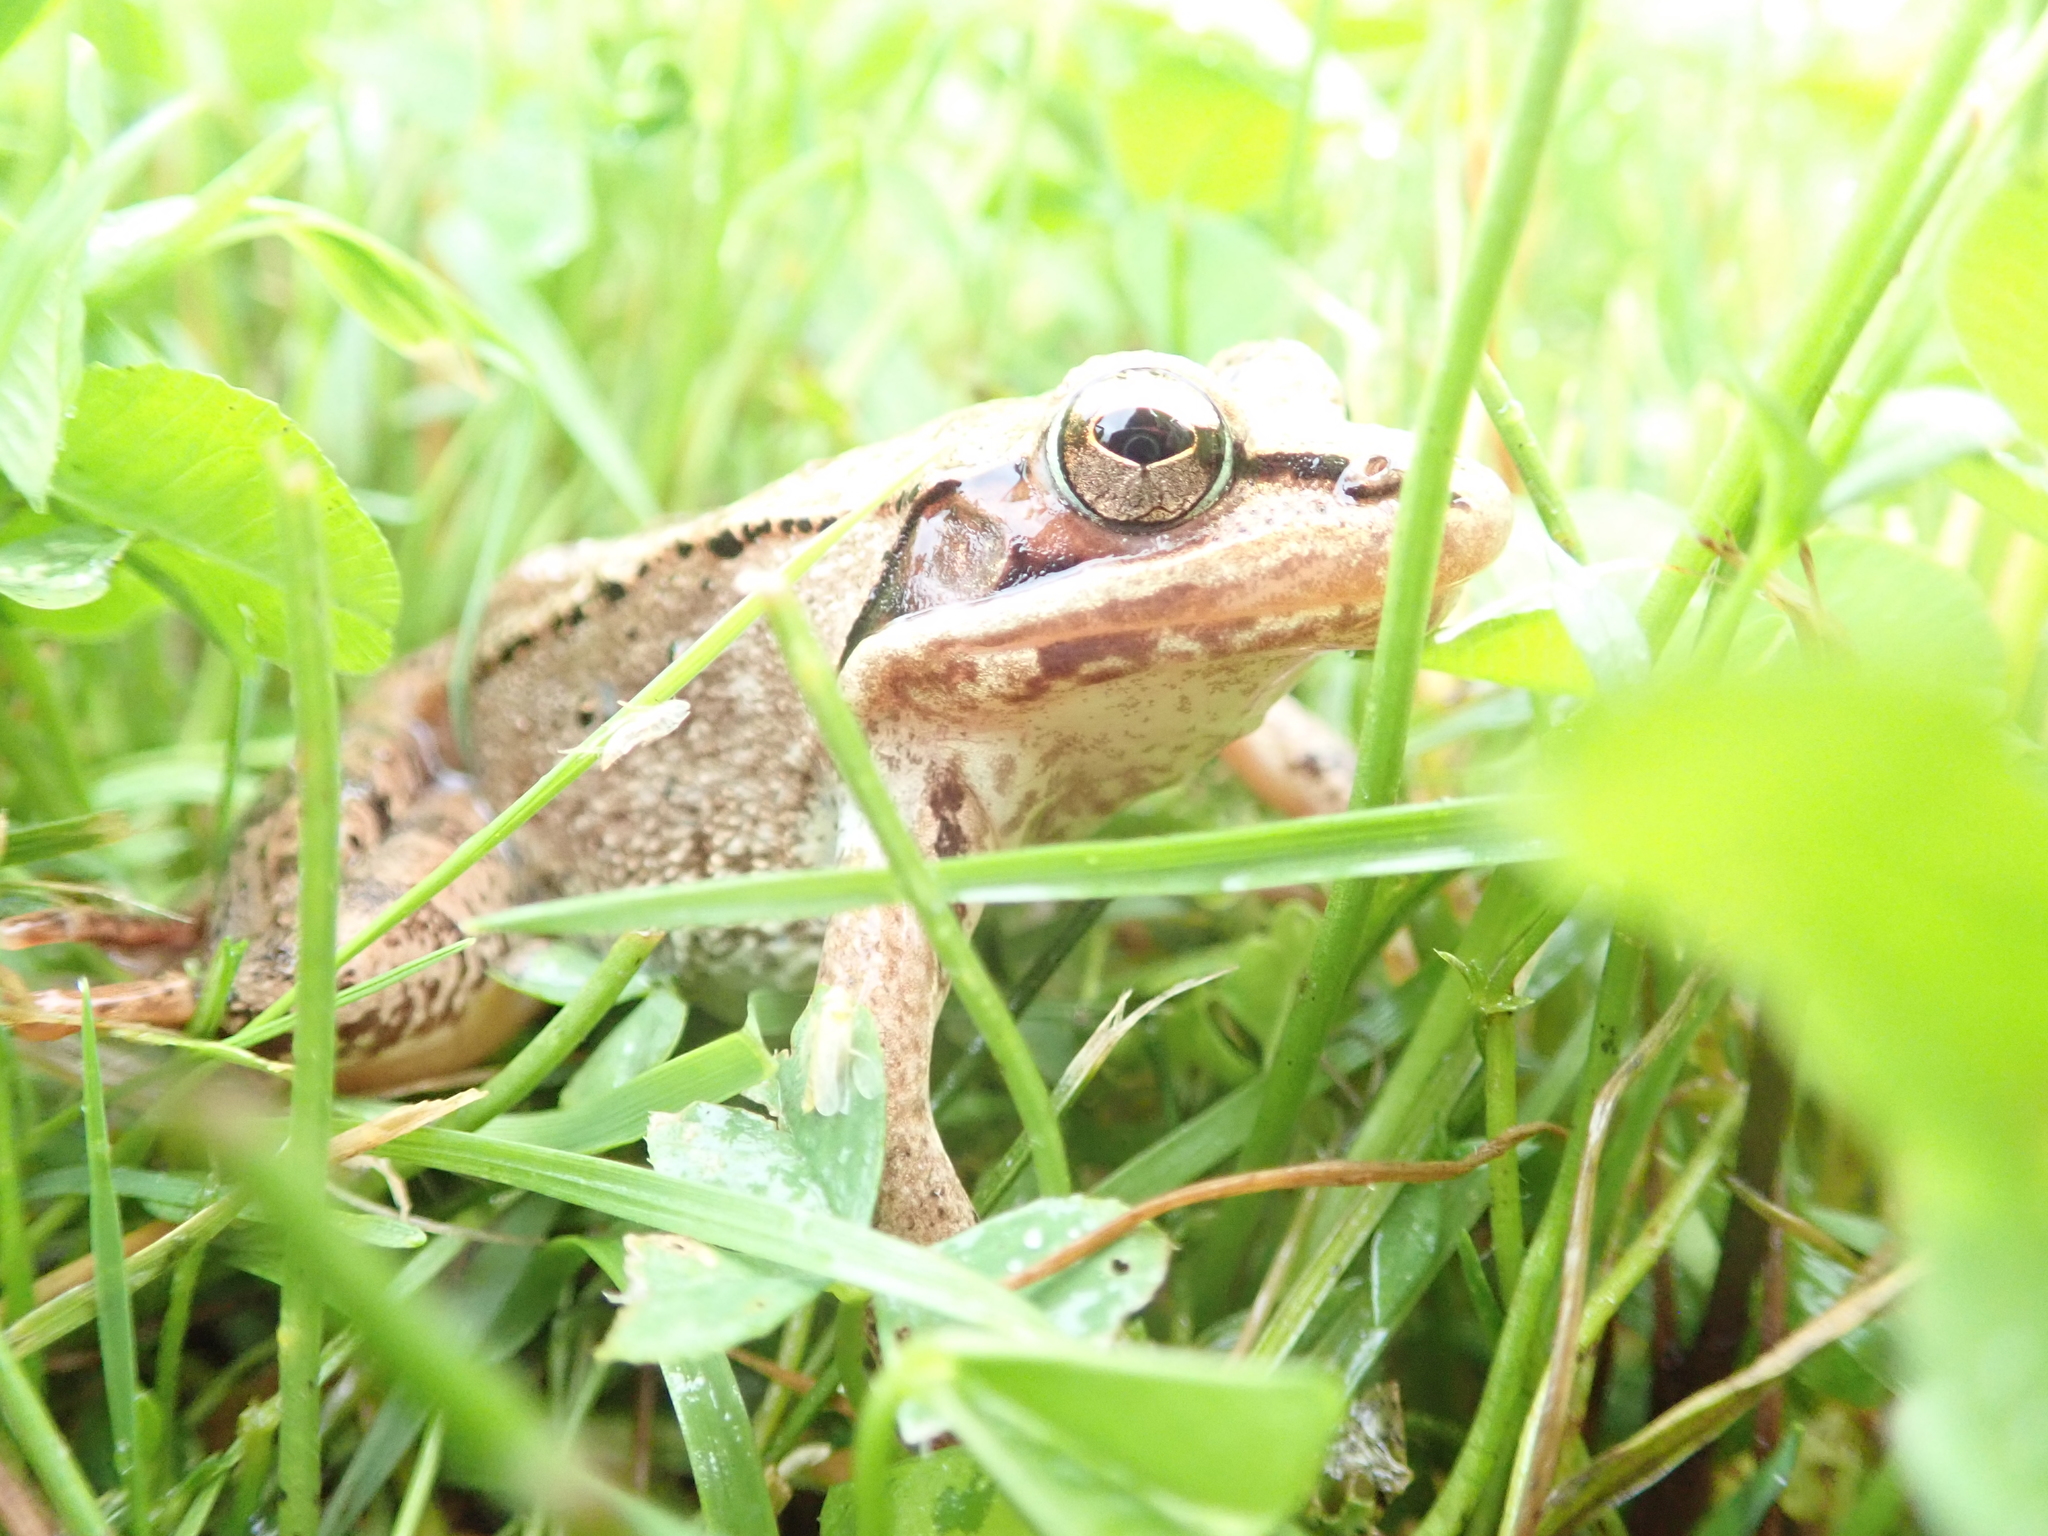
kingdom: Animalia
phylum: Chordata
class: Amphibia
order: Anura
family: Ranidae
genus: Lithobates
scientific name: Lithobates sylvaticus
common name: Wood frog
